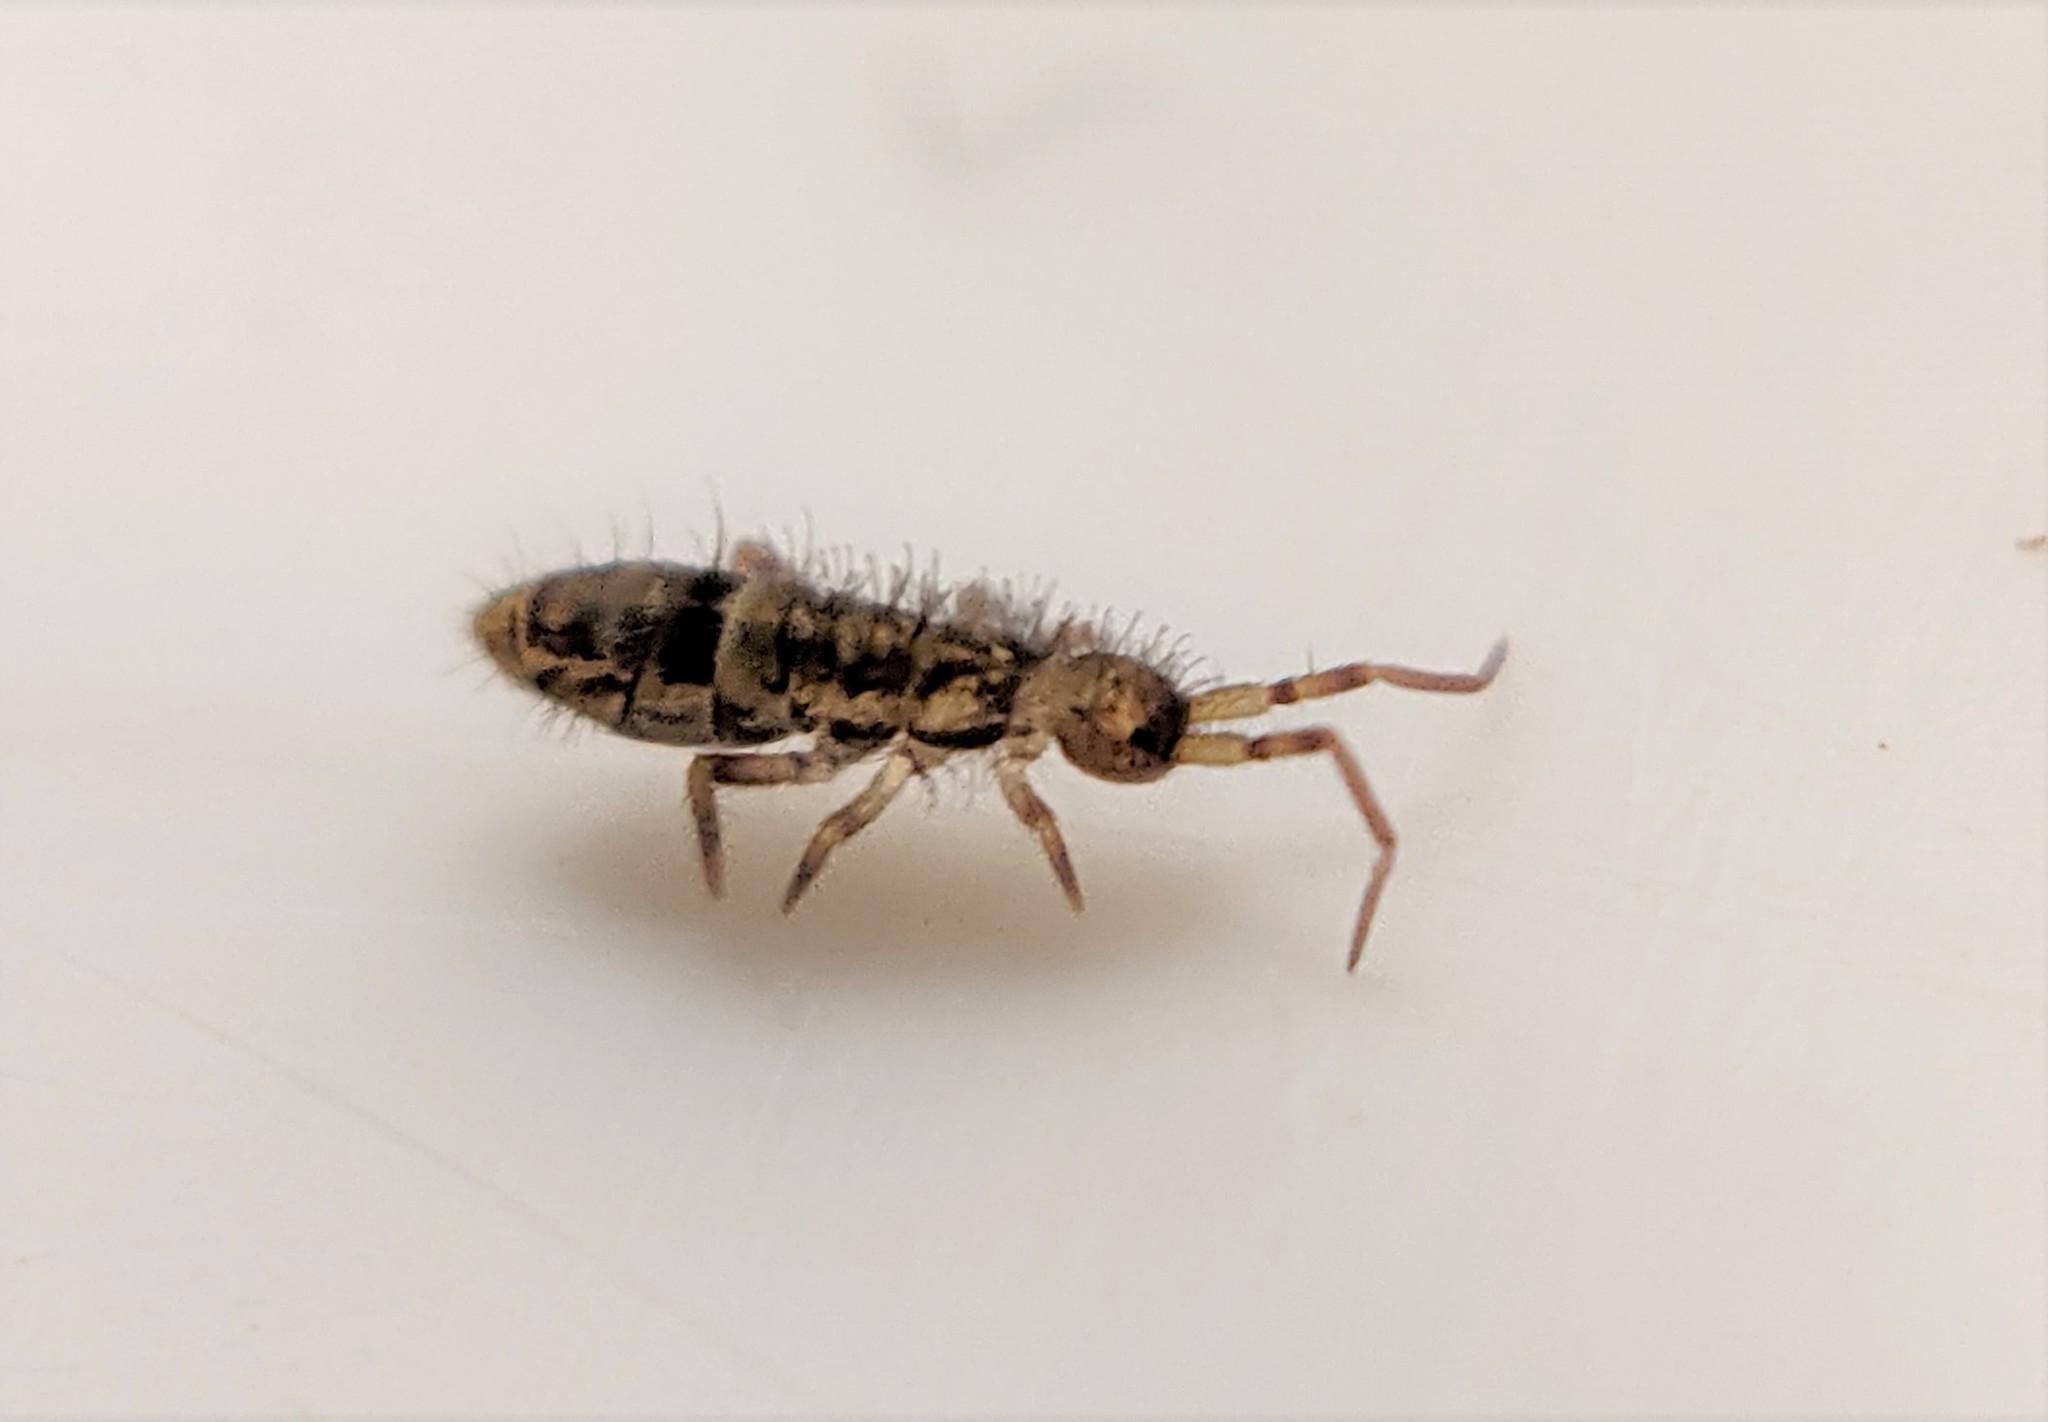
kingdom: Animalia
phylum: Arthropoda
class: Collembola
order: Entomobryomorpha
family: Orchesellidae
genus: Orchesella
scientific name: Orchesella cincta
